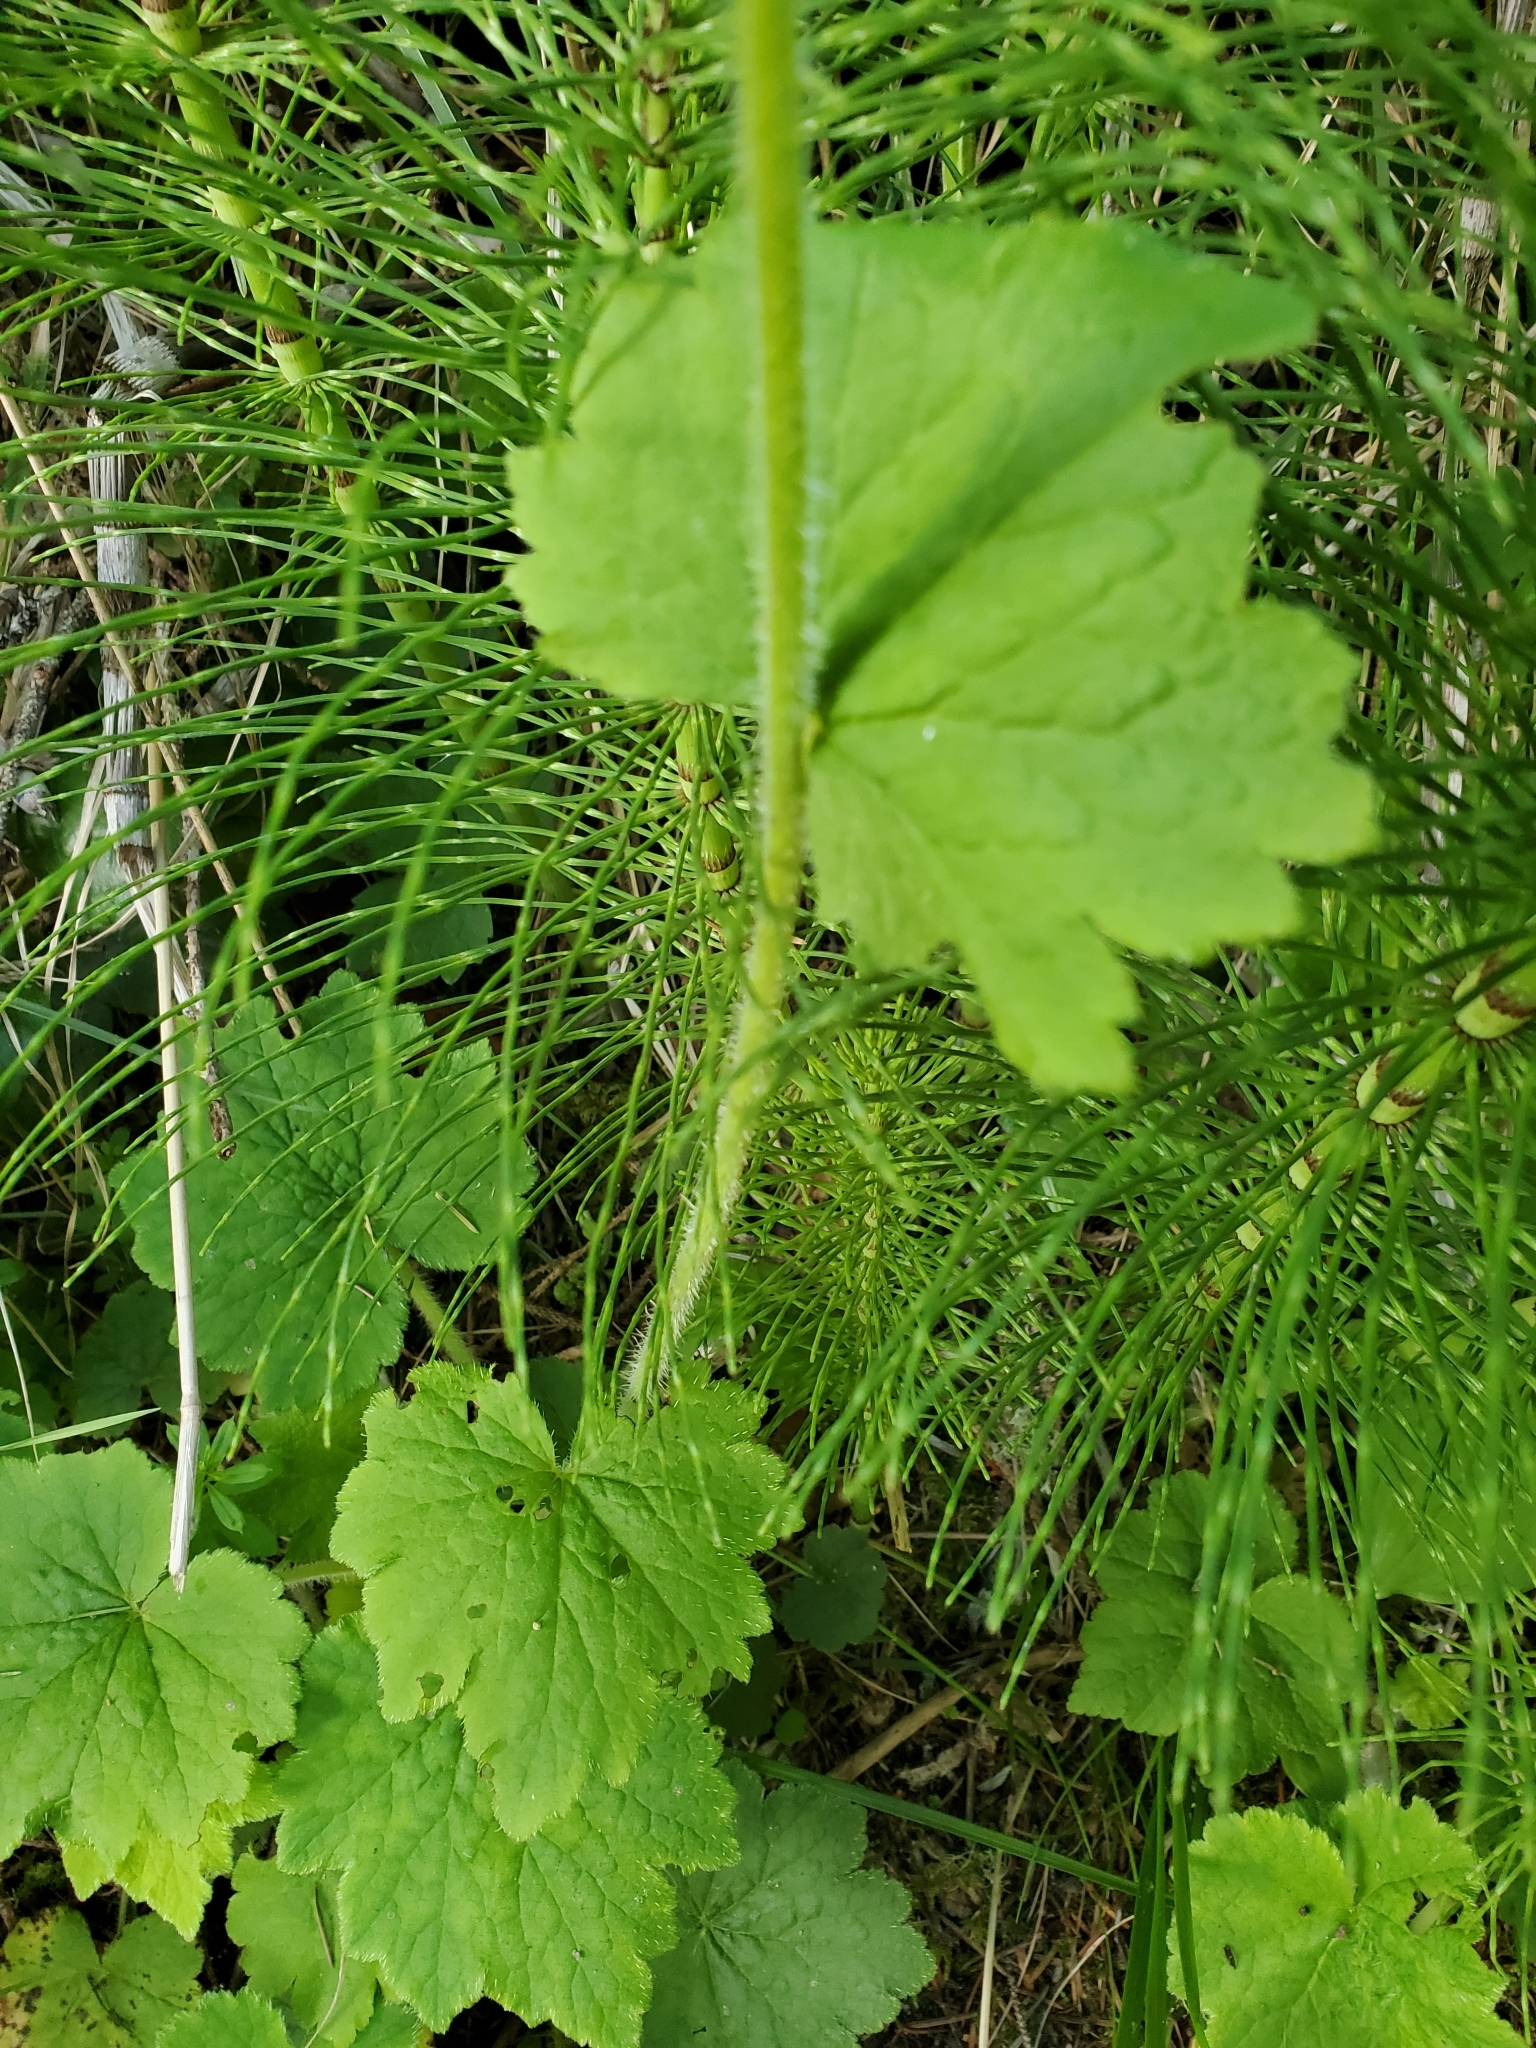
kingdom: Plantae
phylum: Tracheophyta
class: Magnoliopsida
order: Saxifragales
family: Saxifragaceae
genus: Tellima
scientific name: Tellima grandiflora
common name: Fringecups
